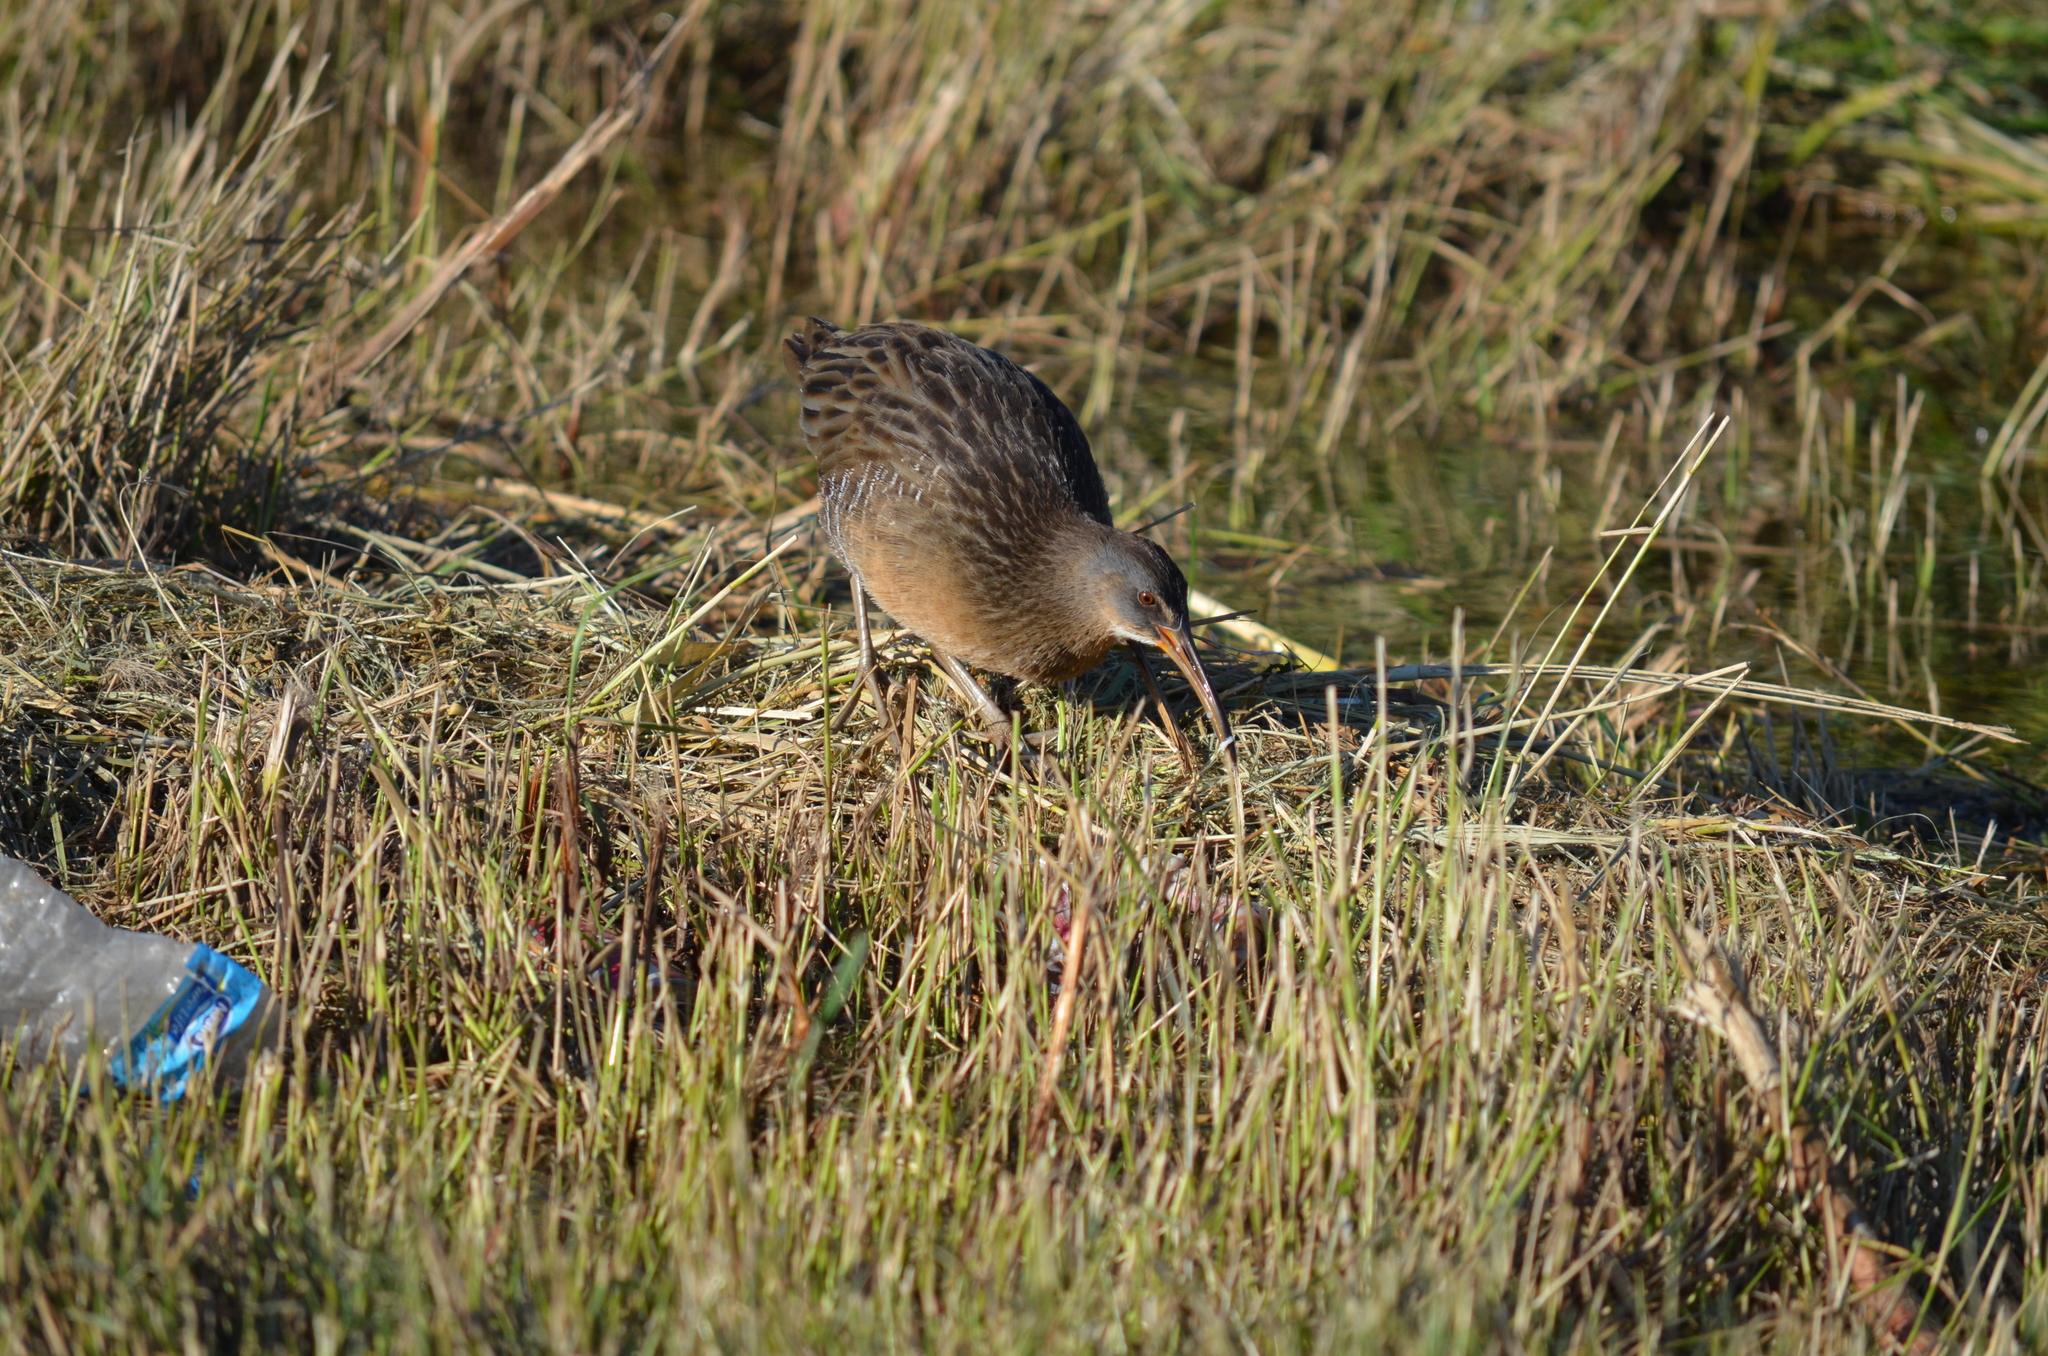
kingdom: Animalia
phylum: Chordata
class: Aves
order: Gruiformes
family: Rallidae
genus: Rallus
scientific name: Rallus
